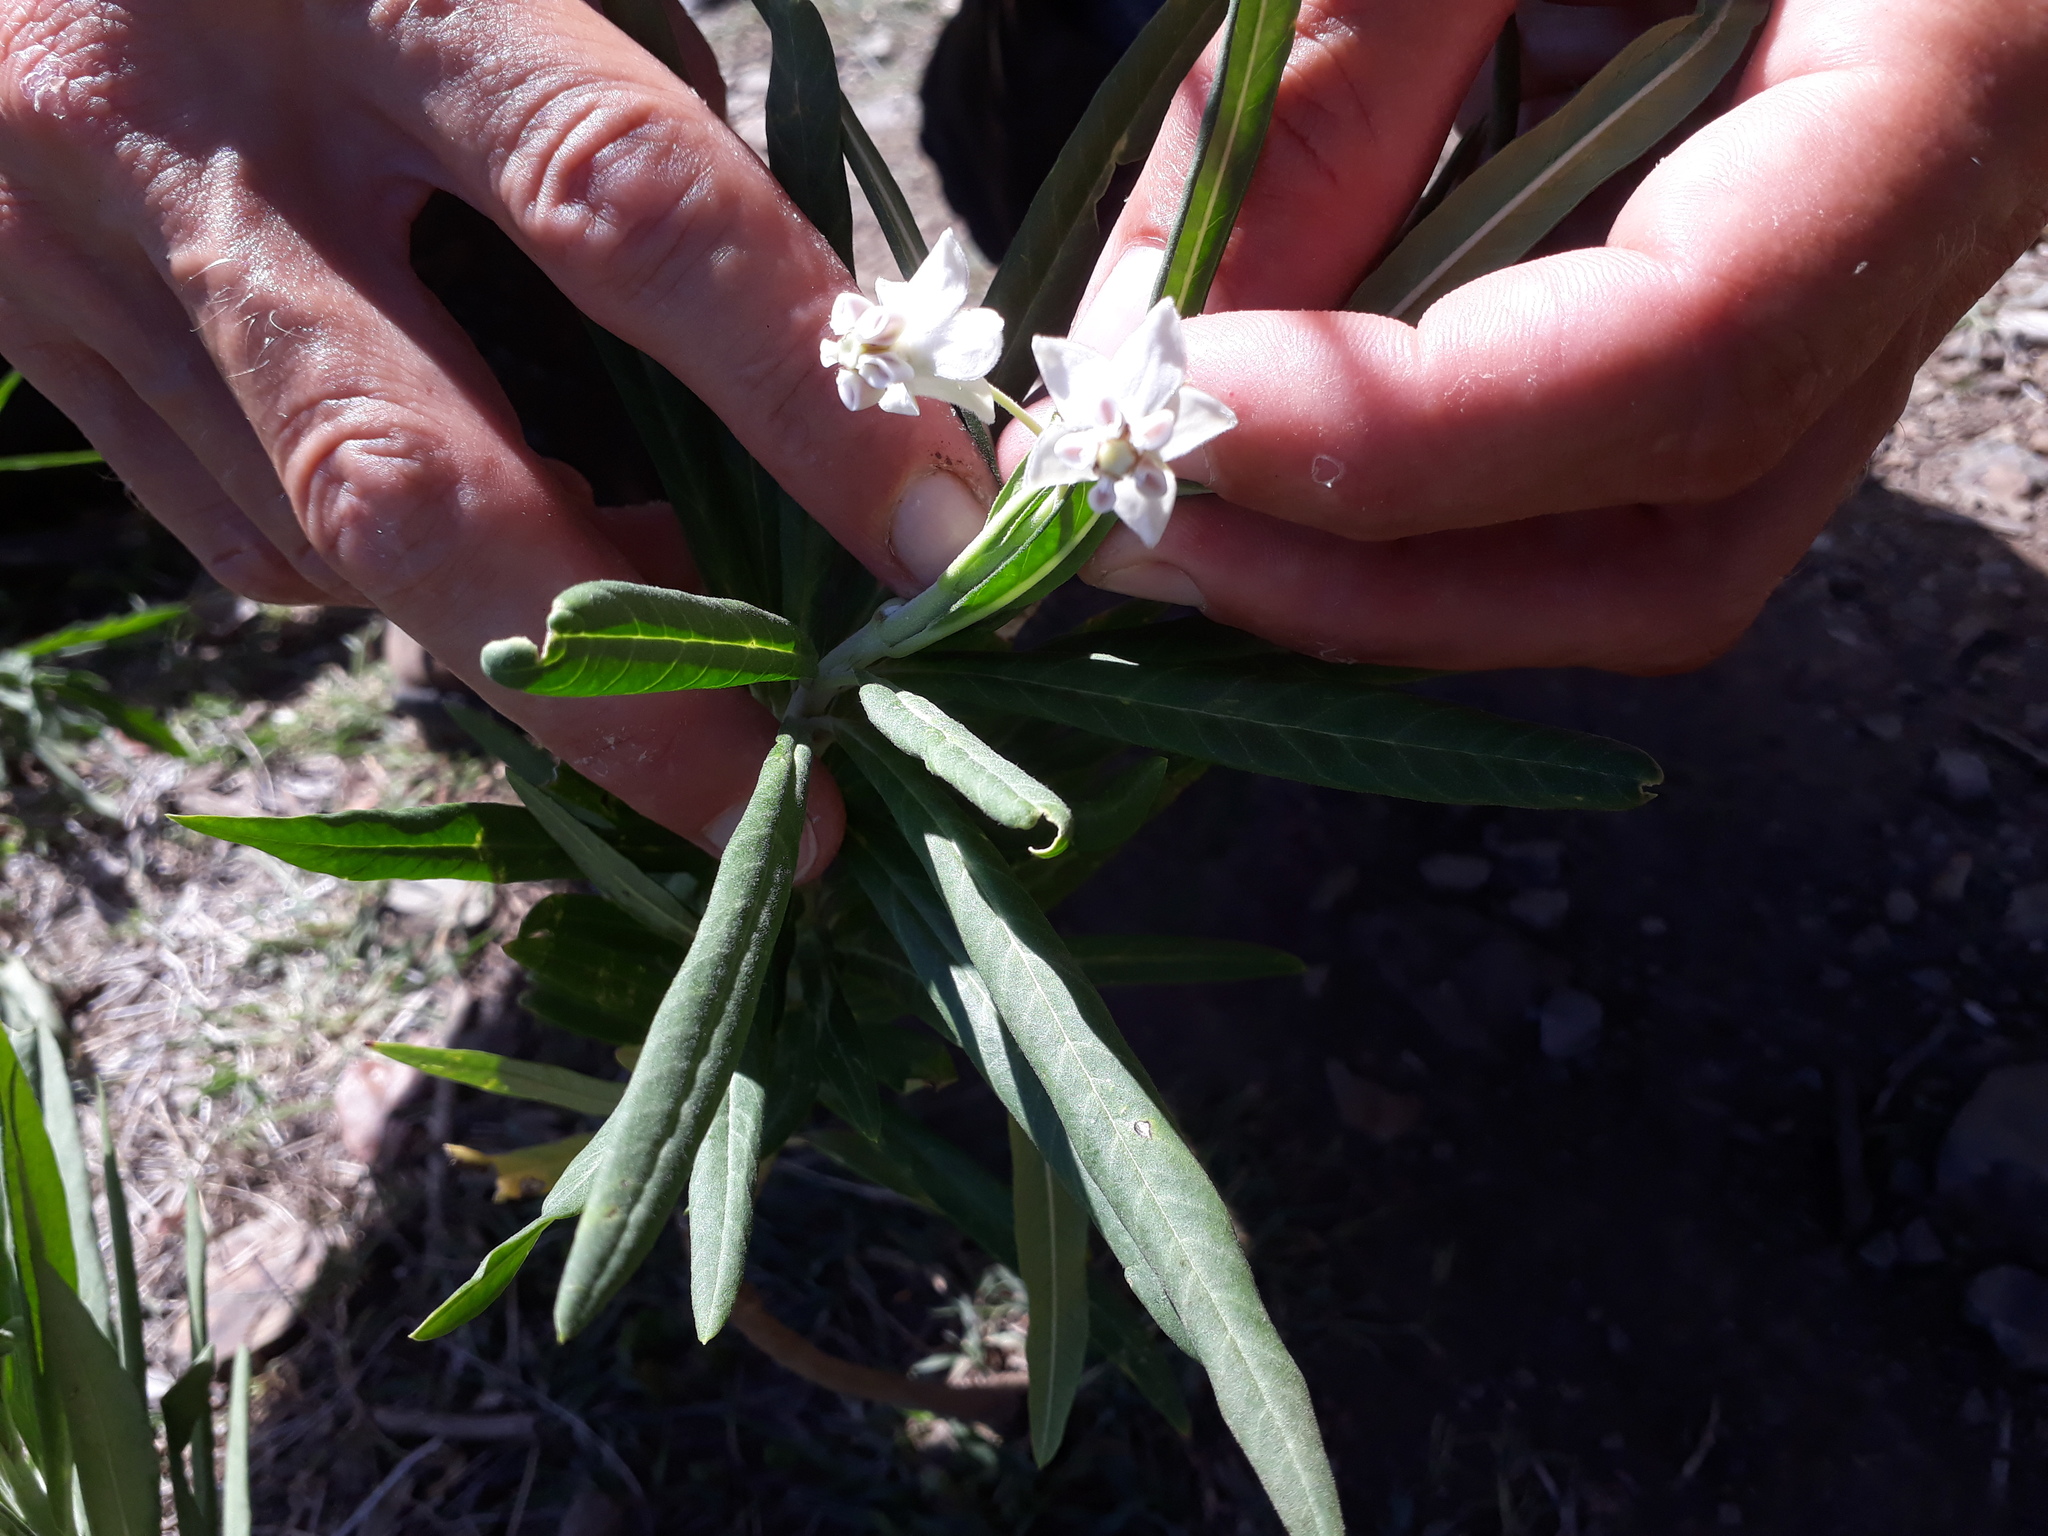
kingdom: Plantae
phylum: Tracheophyta
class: Magnoliopsida
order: Gentianales
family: Apocynaceae
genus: Gomphocarpus
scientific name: Gomphocarpus physocarpus
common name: Balloon cotton bush
